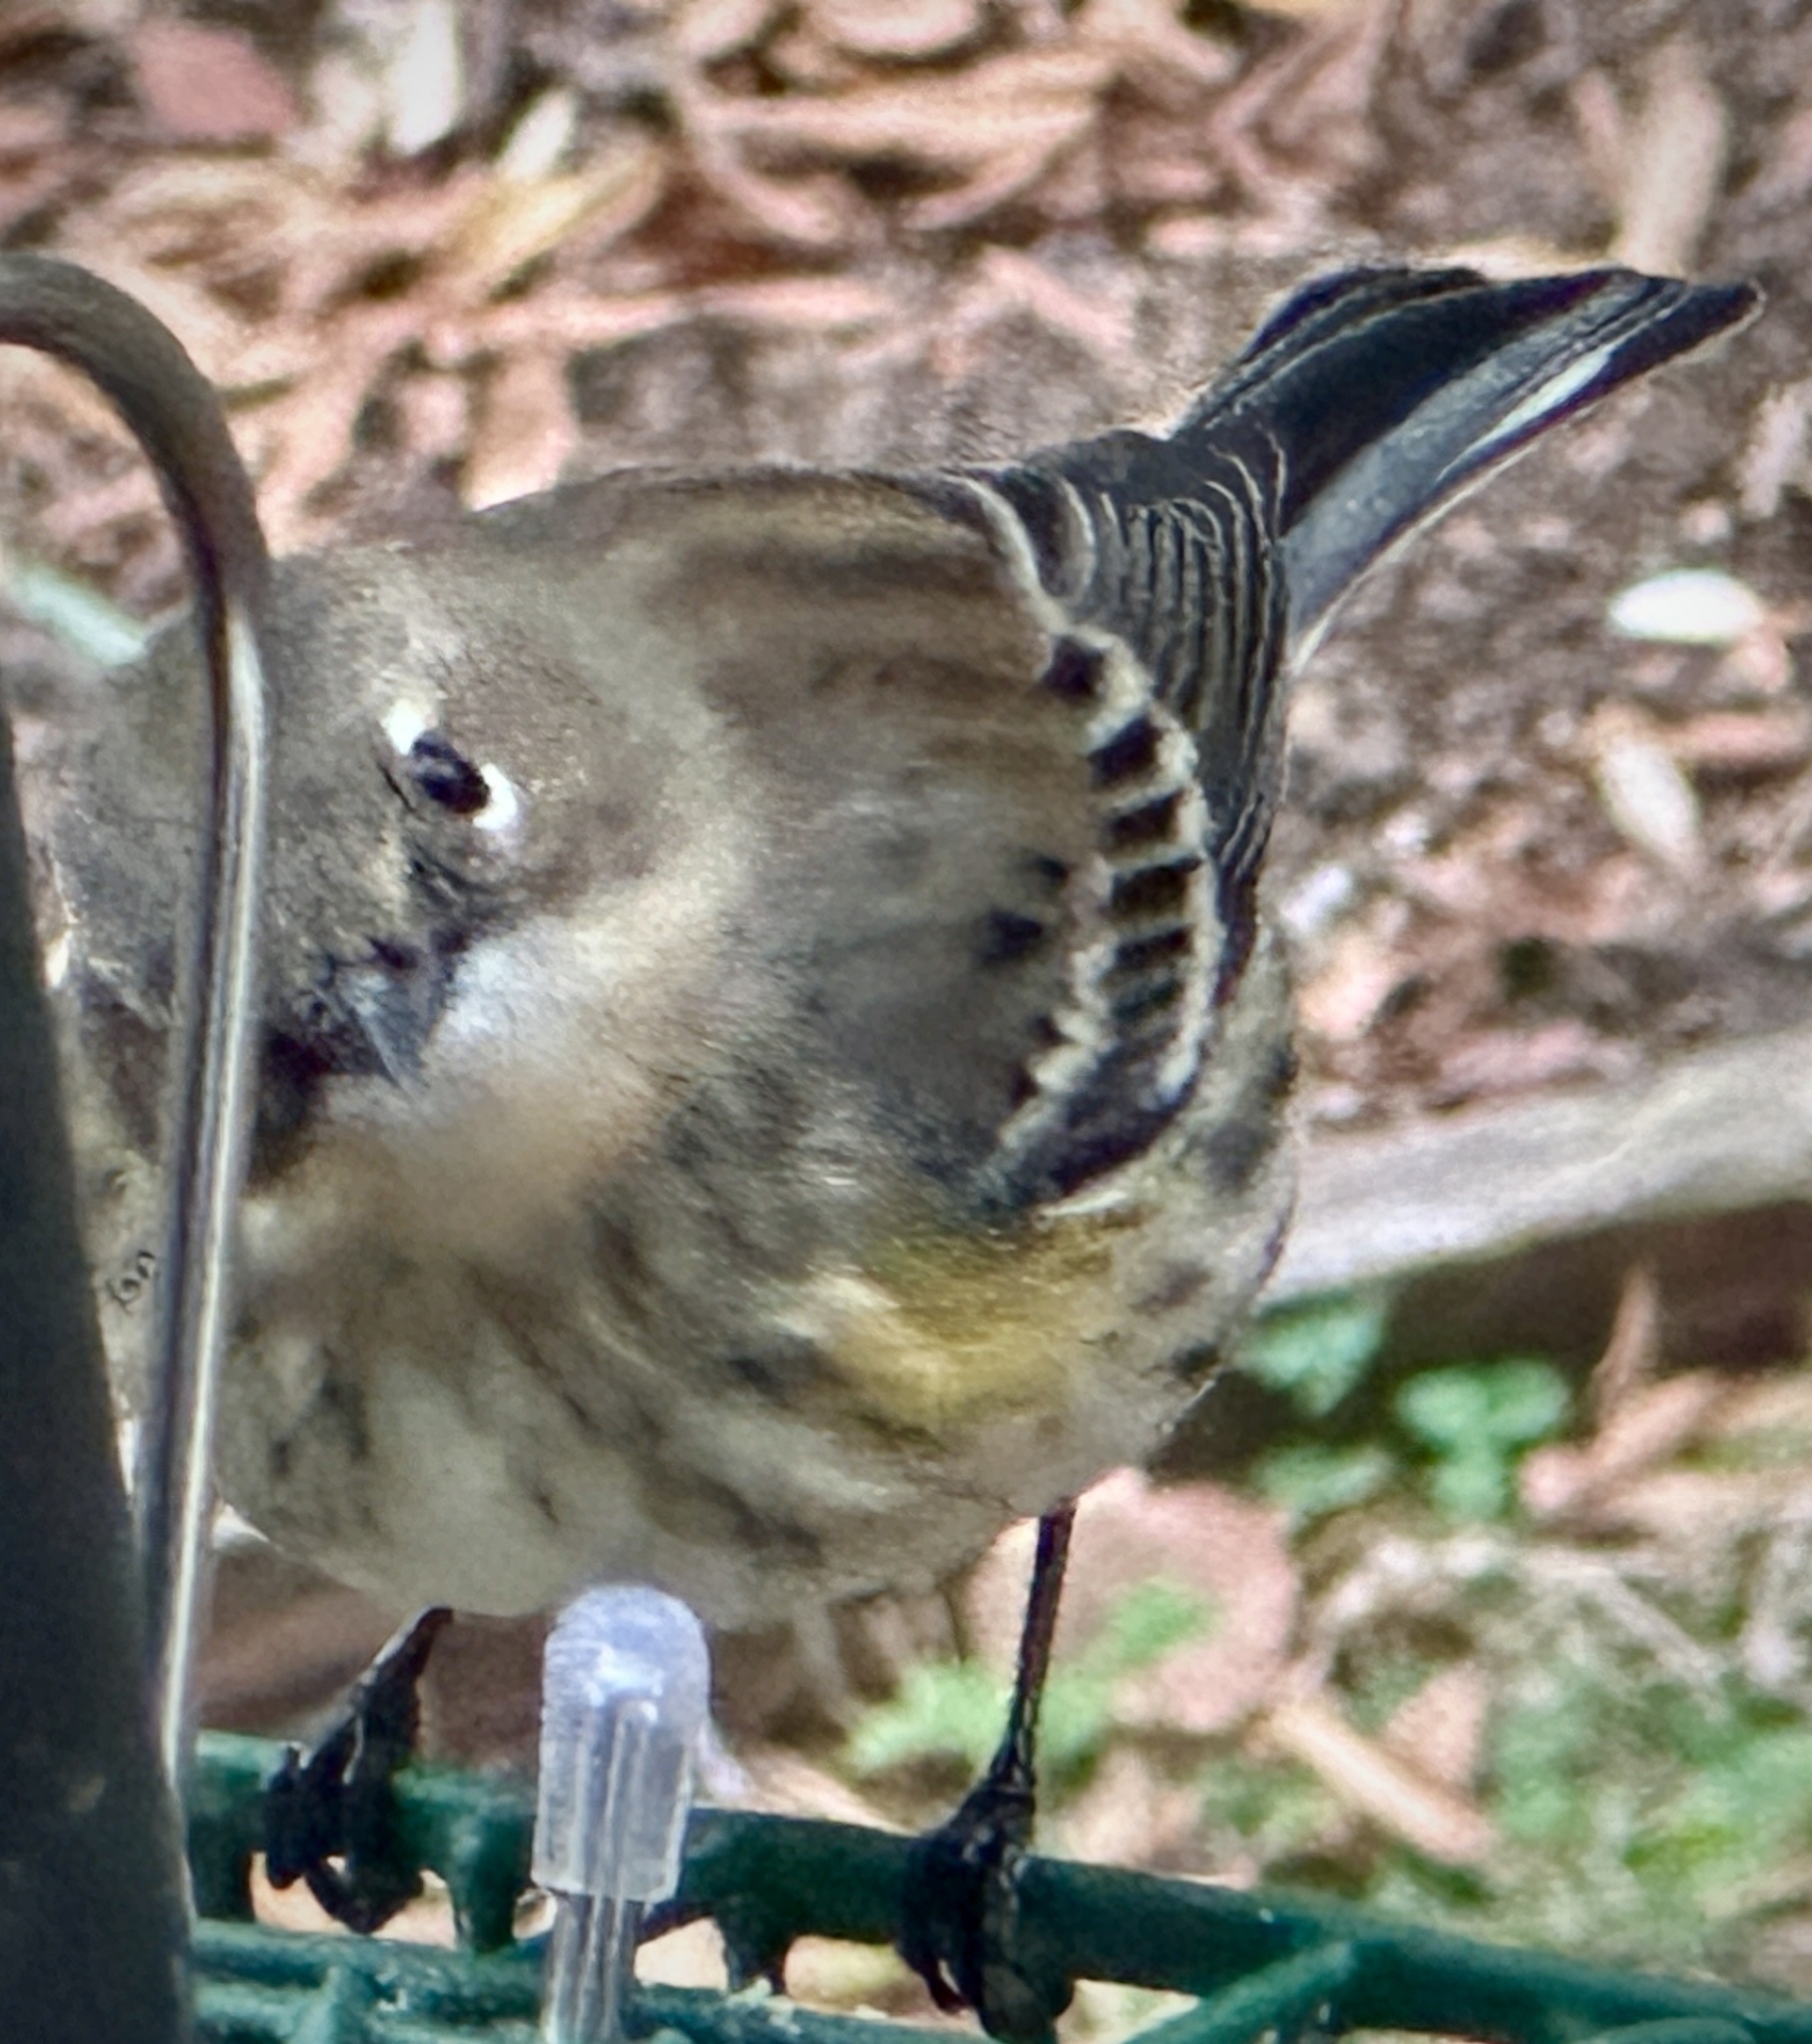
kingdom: Animalia
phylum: Chordata
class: Aves
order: Passeriformes
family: Parulidae
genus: Setophaga
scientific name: Setophaga coronata
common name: Myrtle warbler
